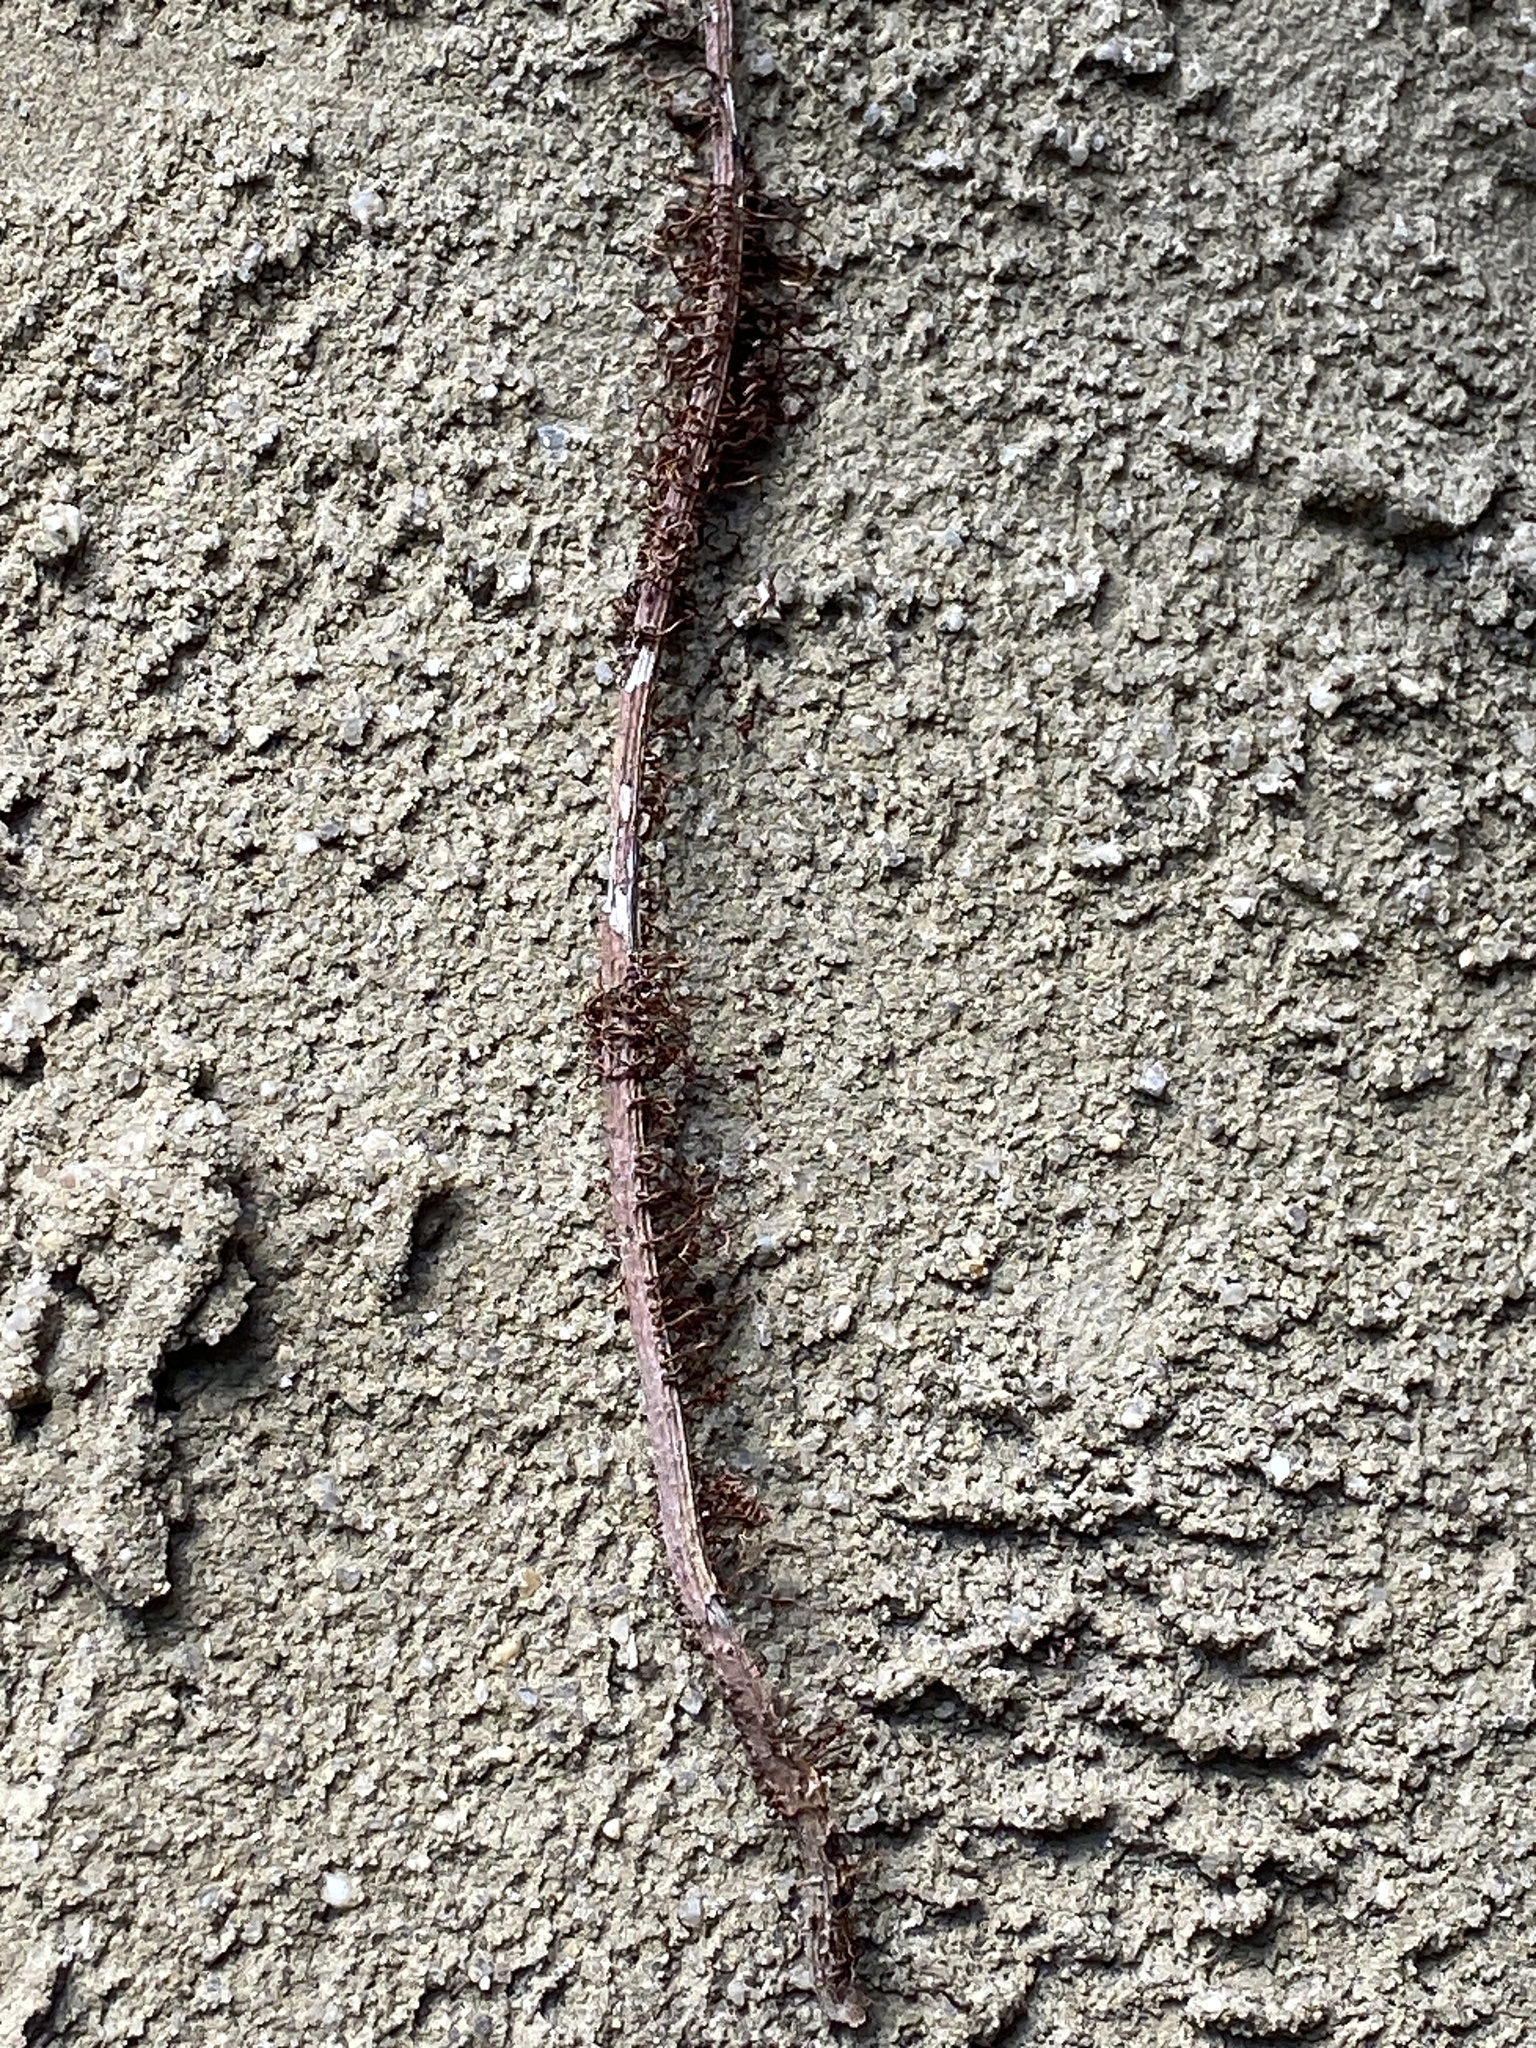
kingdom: Plantae
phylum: Tracheophyta
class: Magnoliopsida
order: Sapindales
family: Anacardiaceae
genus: Toxicodendron
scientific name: Toxicodendron radicans
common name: Poison ivy
